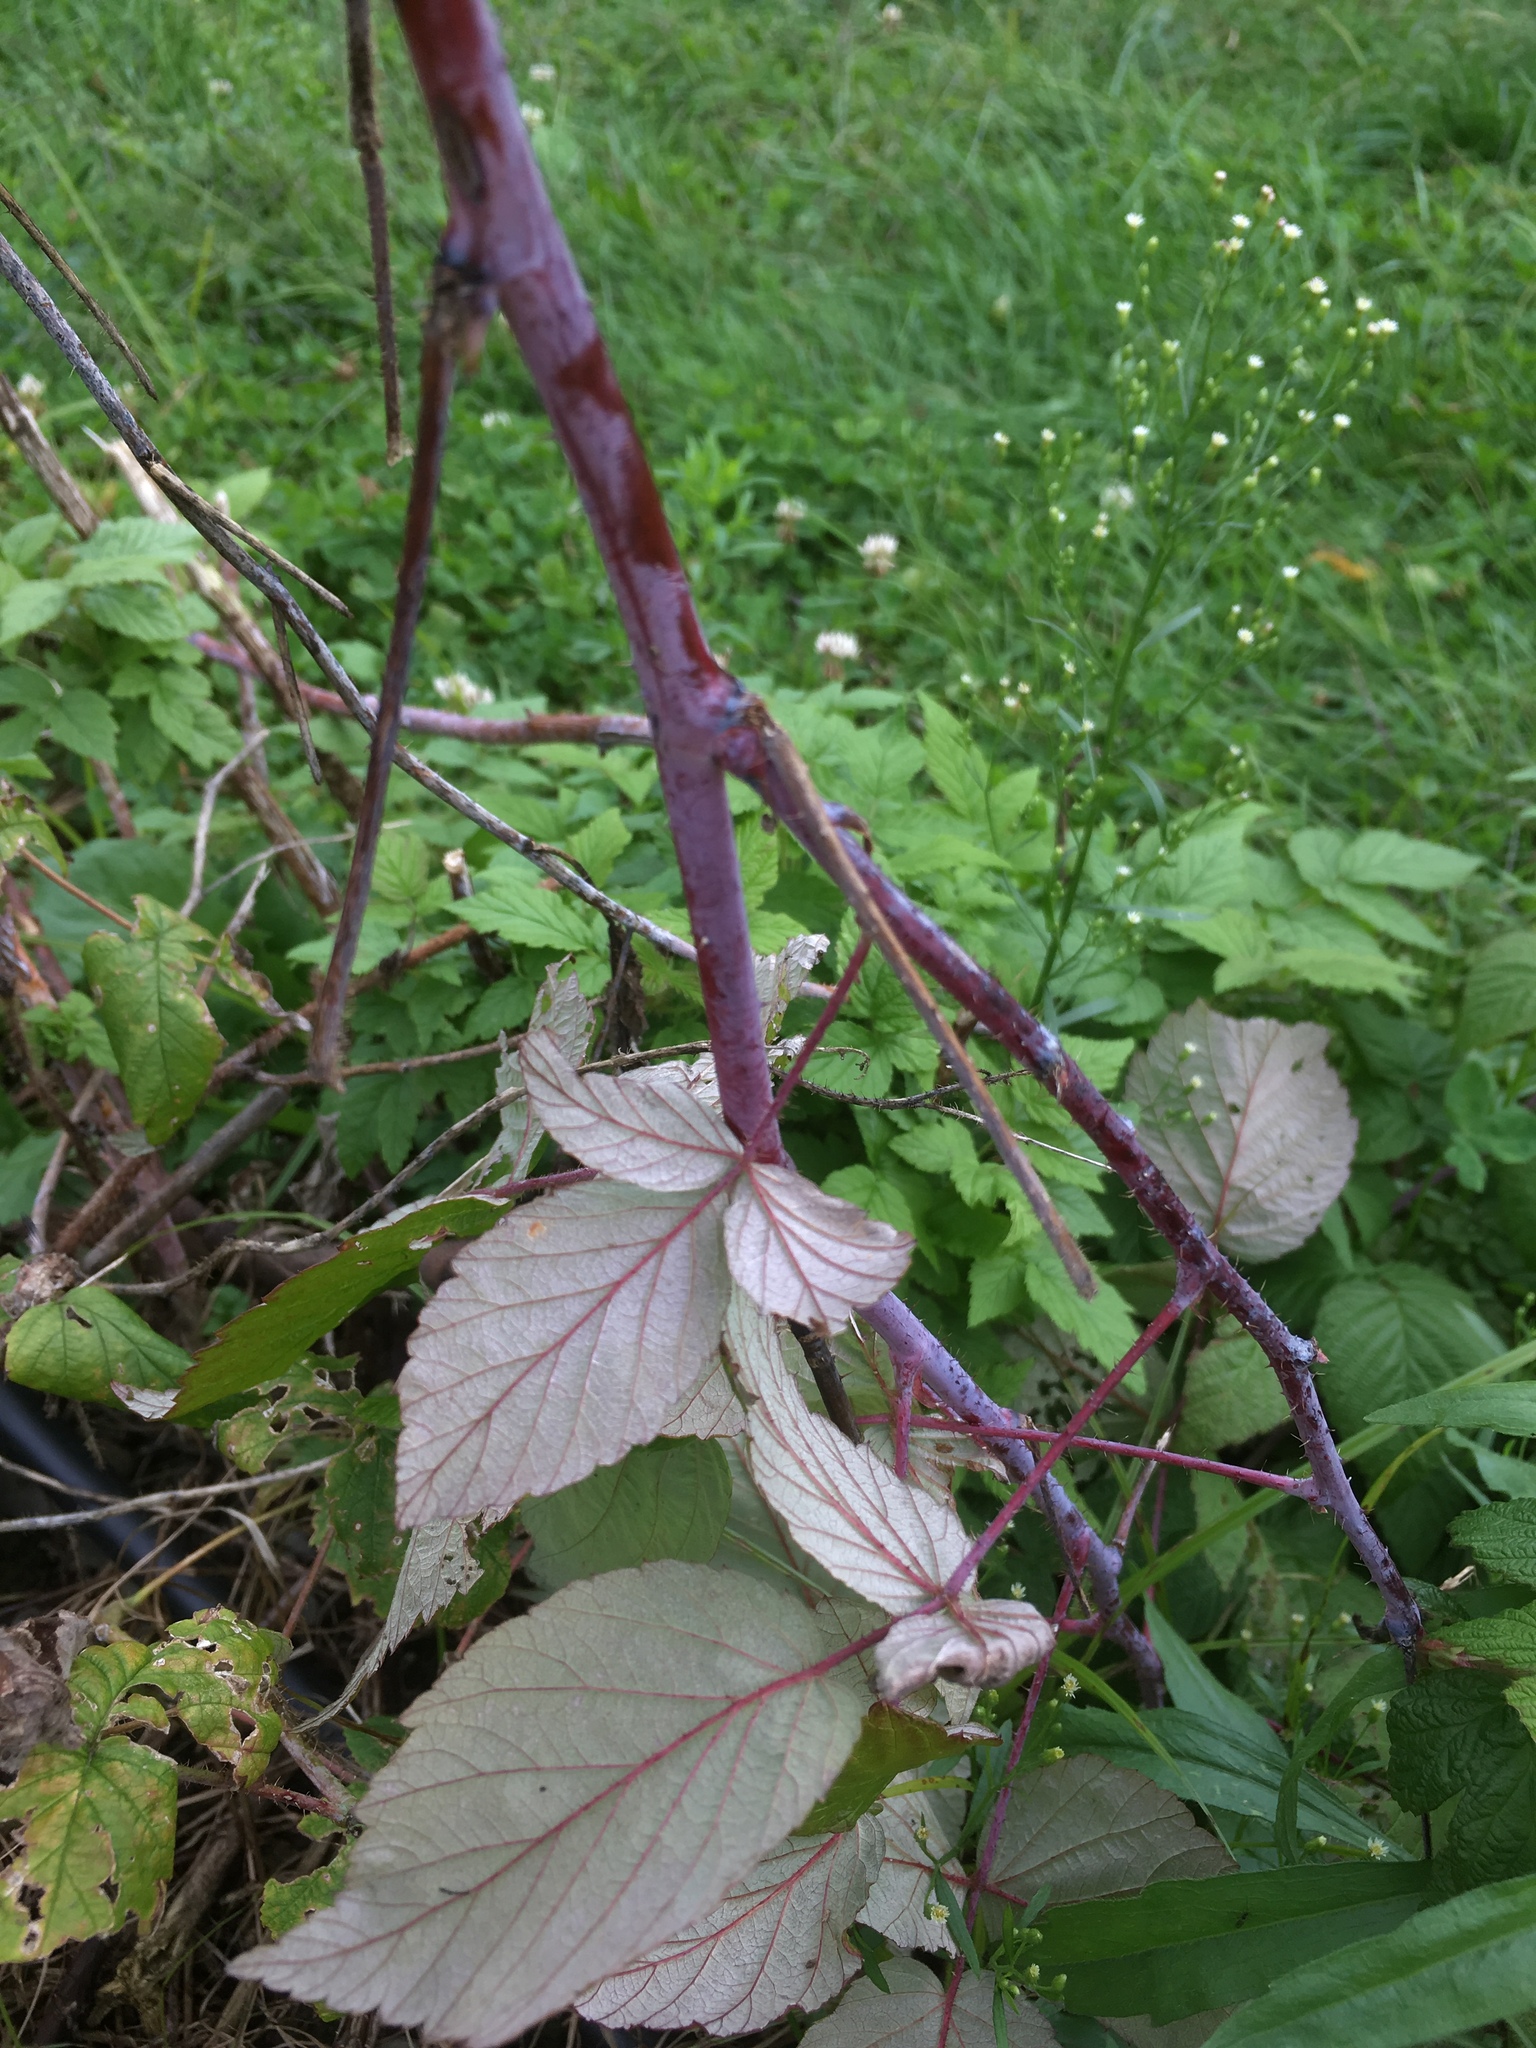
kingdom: Plantae
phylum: Tracheophyta
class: Magnoliopsida
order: Rosales
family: Rosaceae
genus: Rubus
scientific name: Rubus occidentalis
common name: Black raspberry
